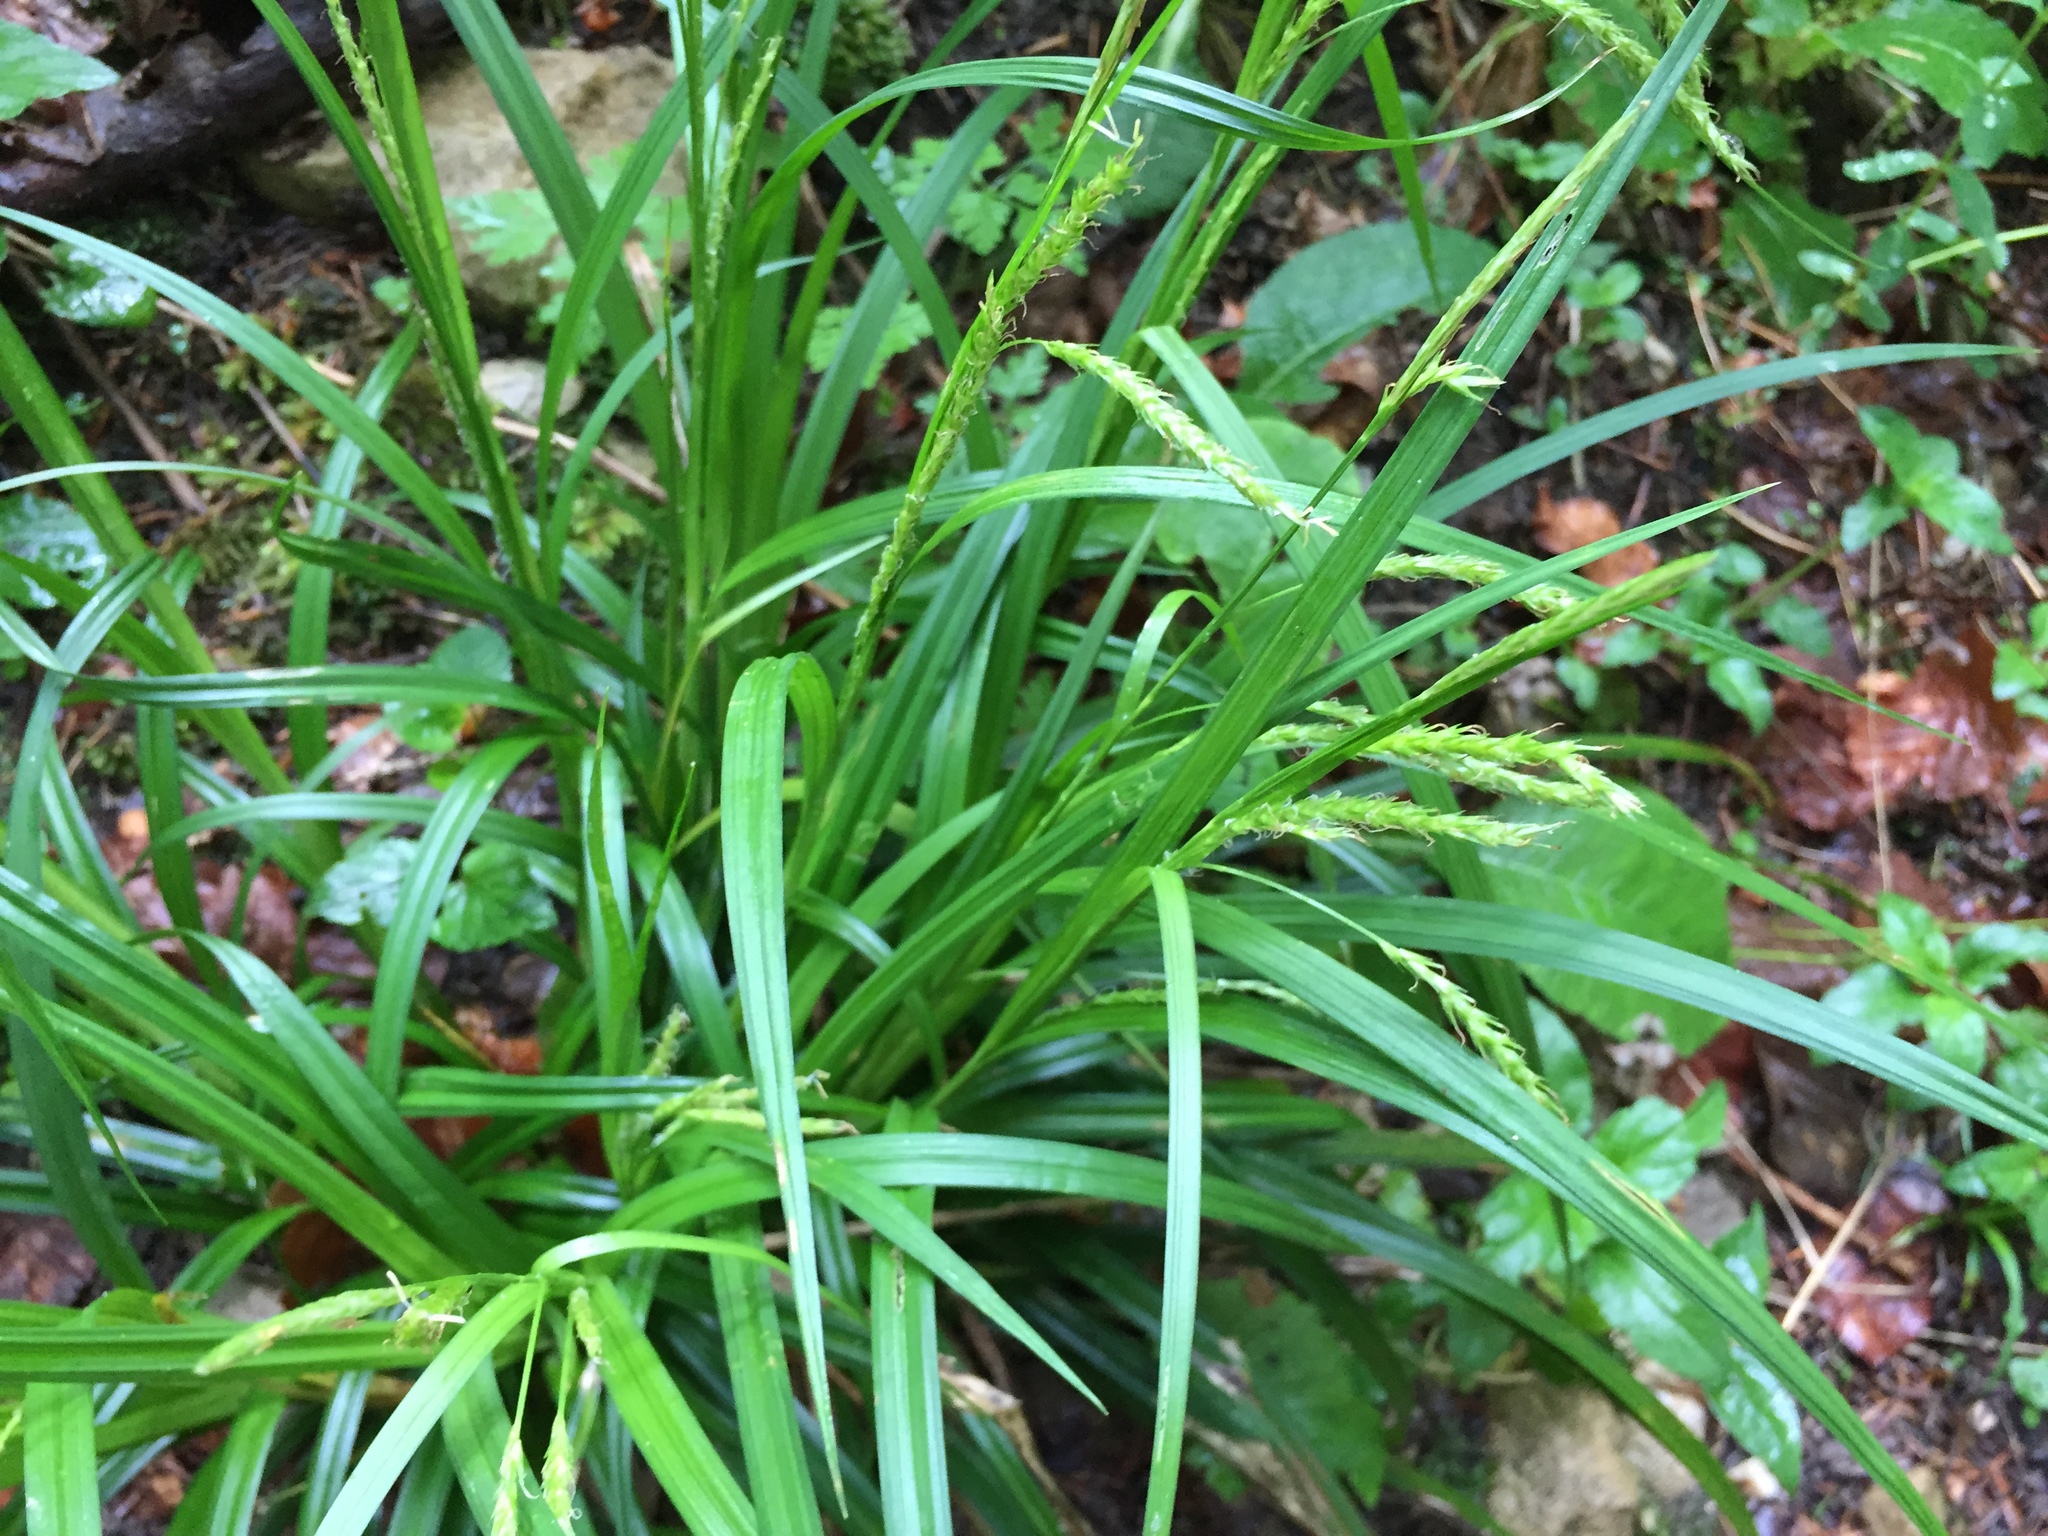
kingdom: Plantae
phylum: Tracheophyta
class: Liliopsida
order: Poales
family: Cyperaceae
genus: Carex
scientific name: Carex sylvatica
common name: Wood-sedge
